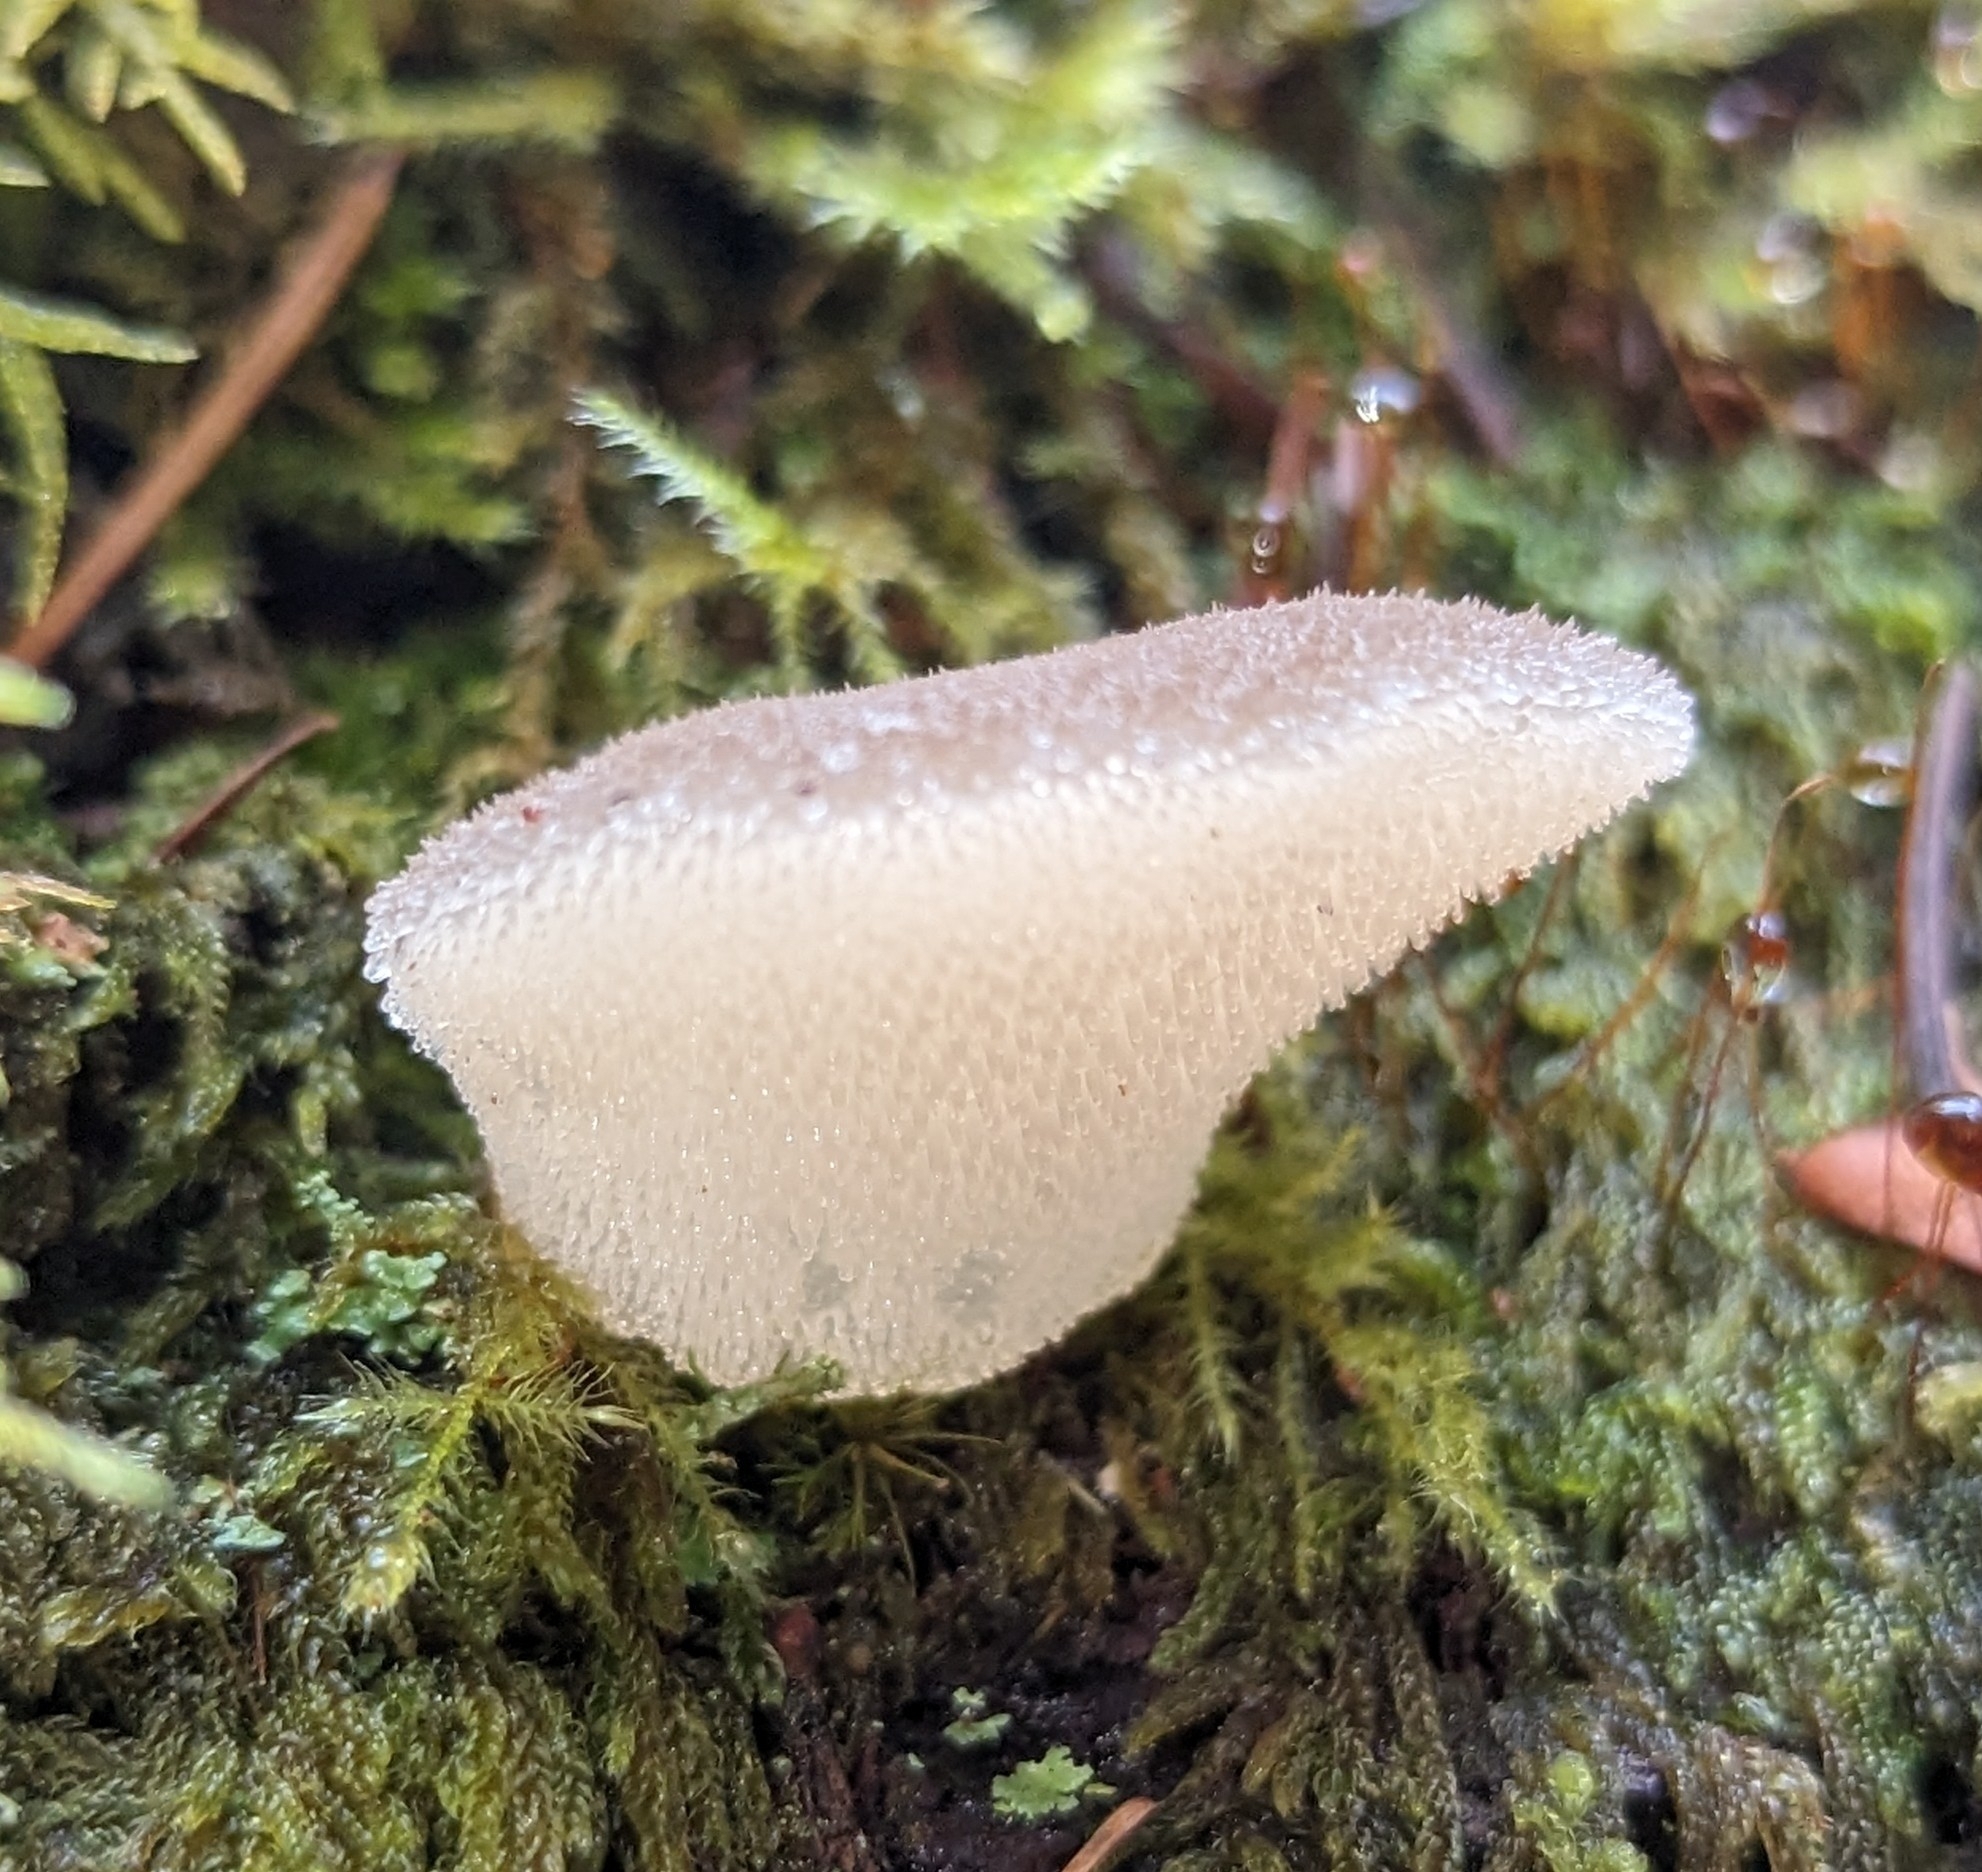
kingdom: Fungi
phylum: Basidiomycota
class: Agaricomycetes
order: Auriculariales
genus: Pseudohydnum
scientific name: Pseudohydnum gelatinosum
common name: Jelly tongue
